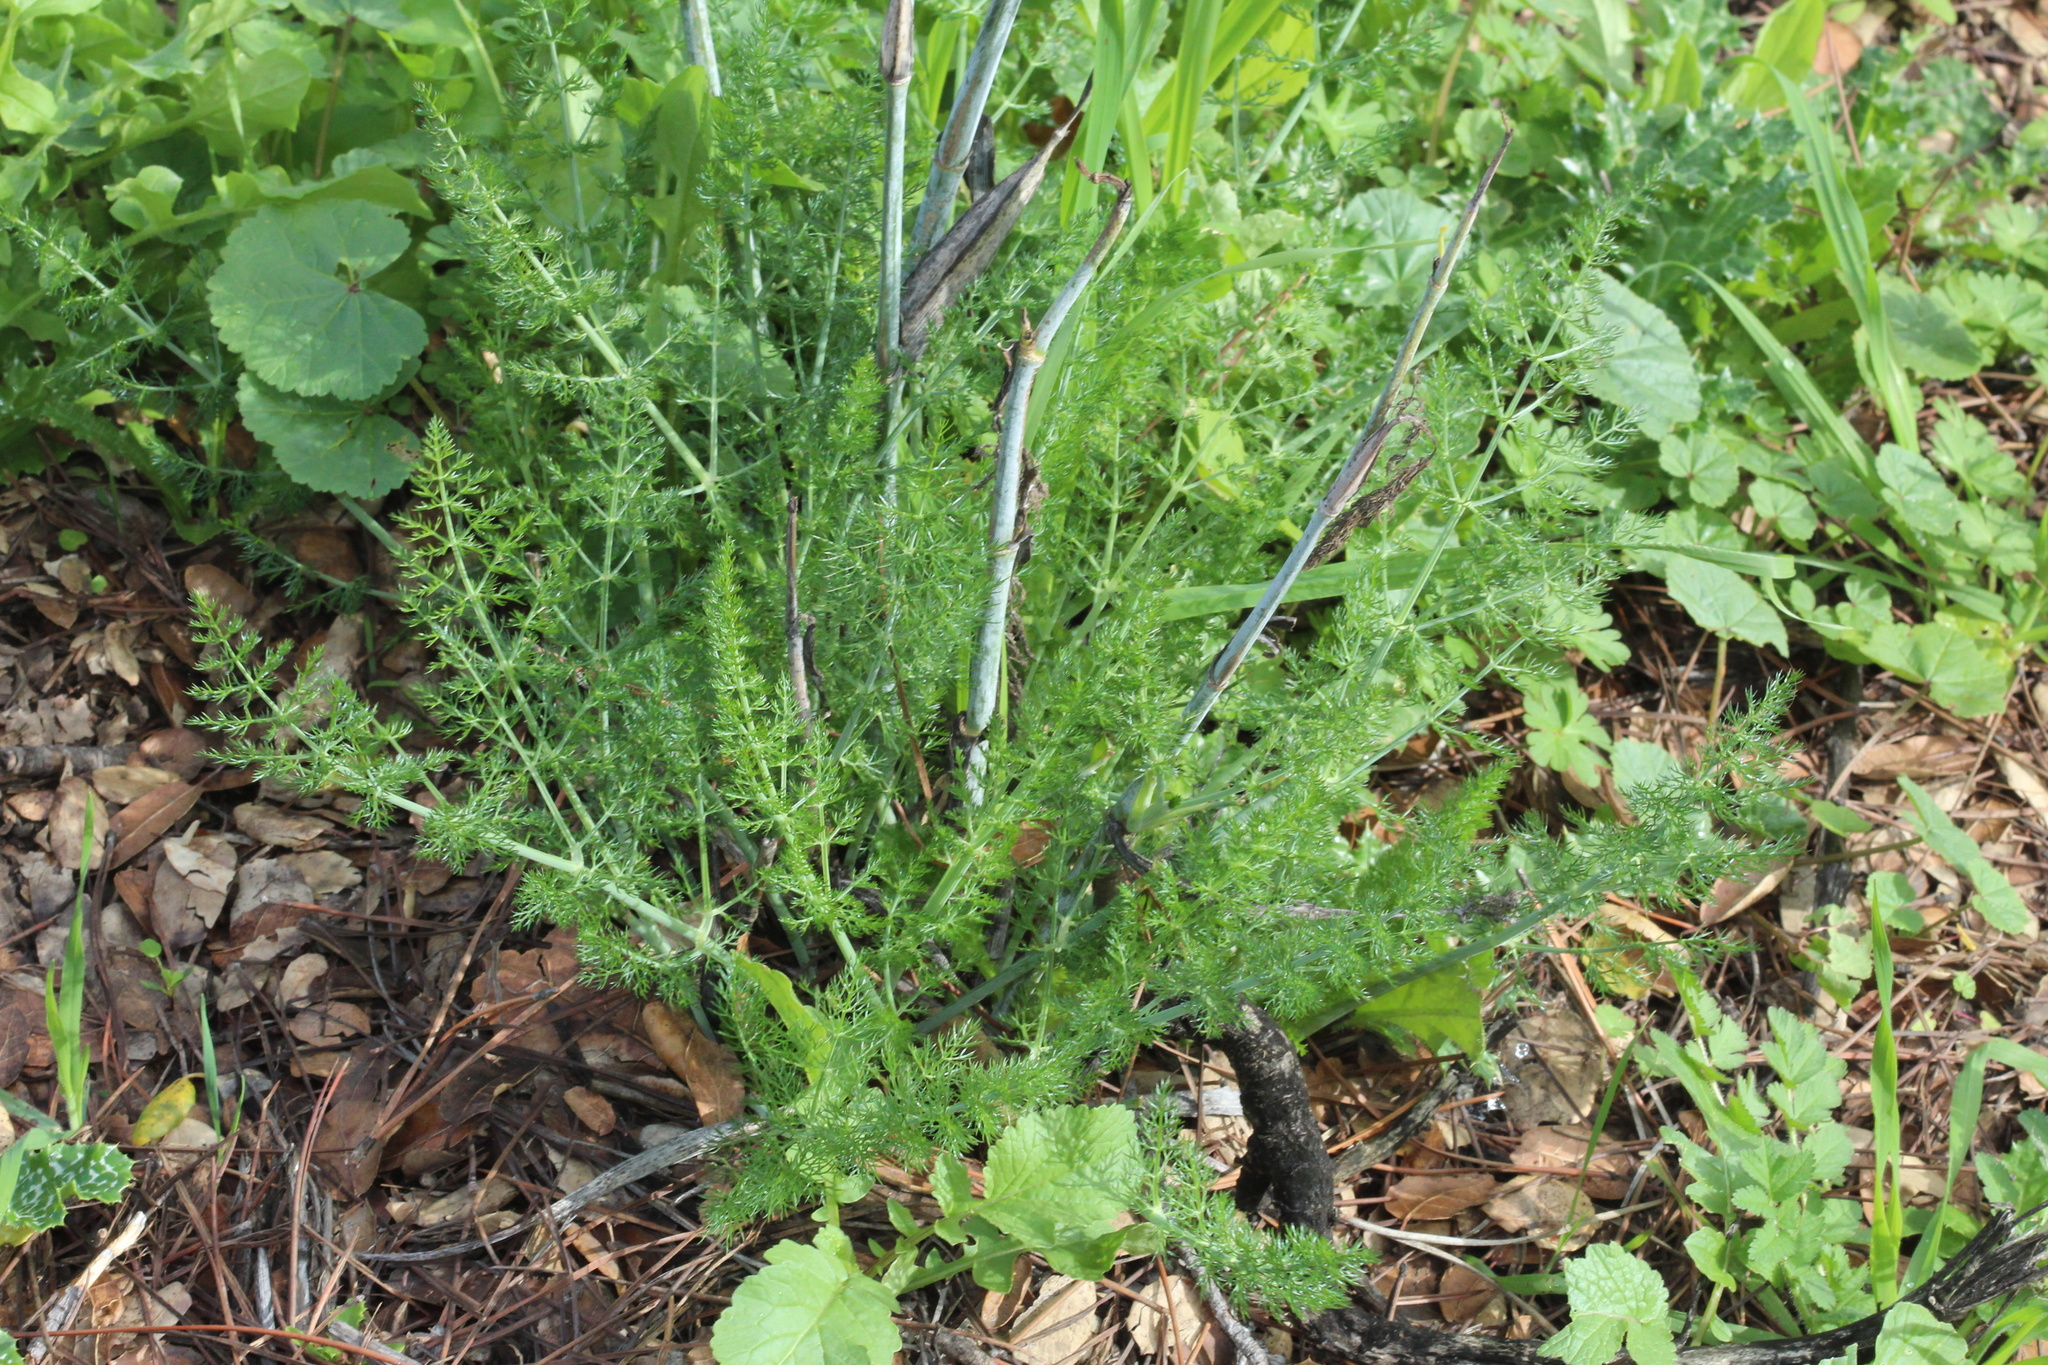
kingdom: Plantae
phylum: Tracheophyta
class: Magnoliopsida
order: Apiales
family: Apiaceae
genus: Foeniculum
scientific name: Foeniculum vulgare
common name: Fennel
